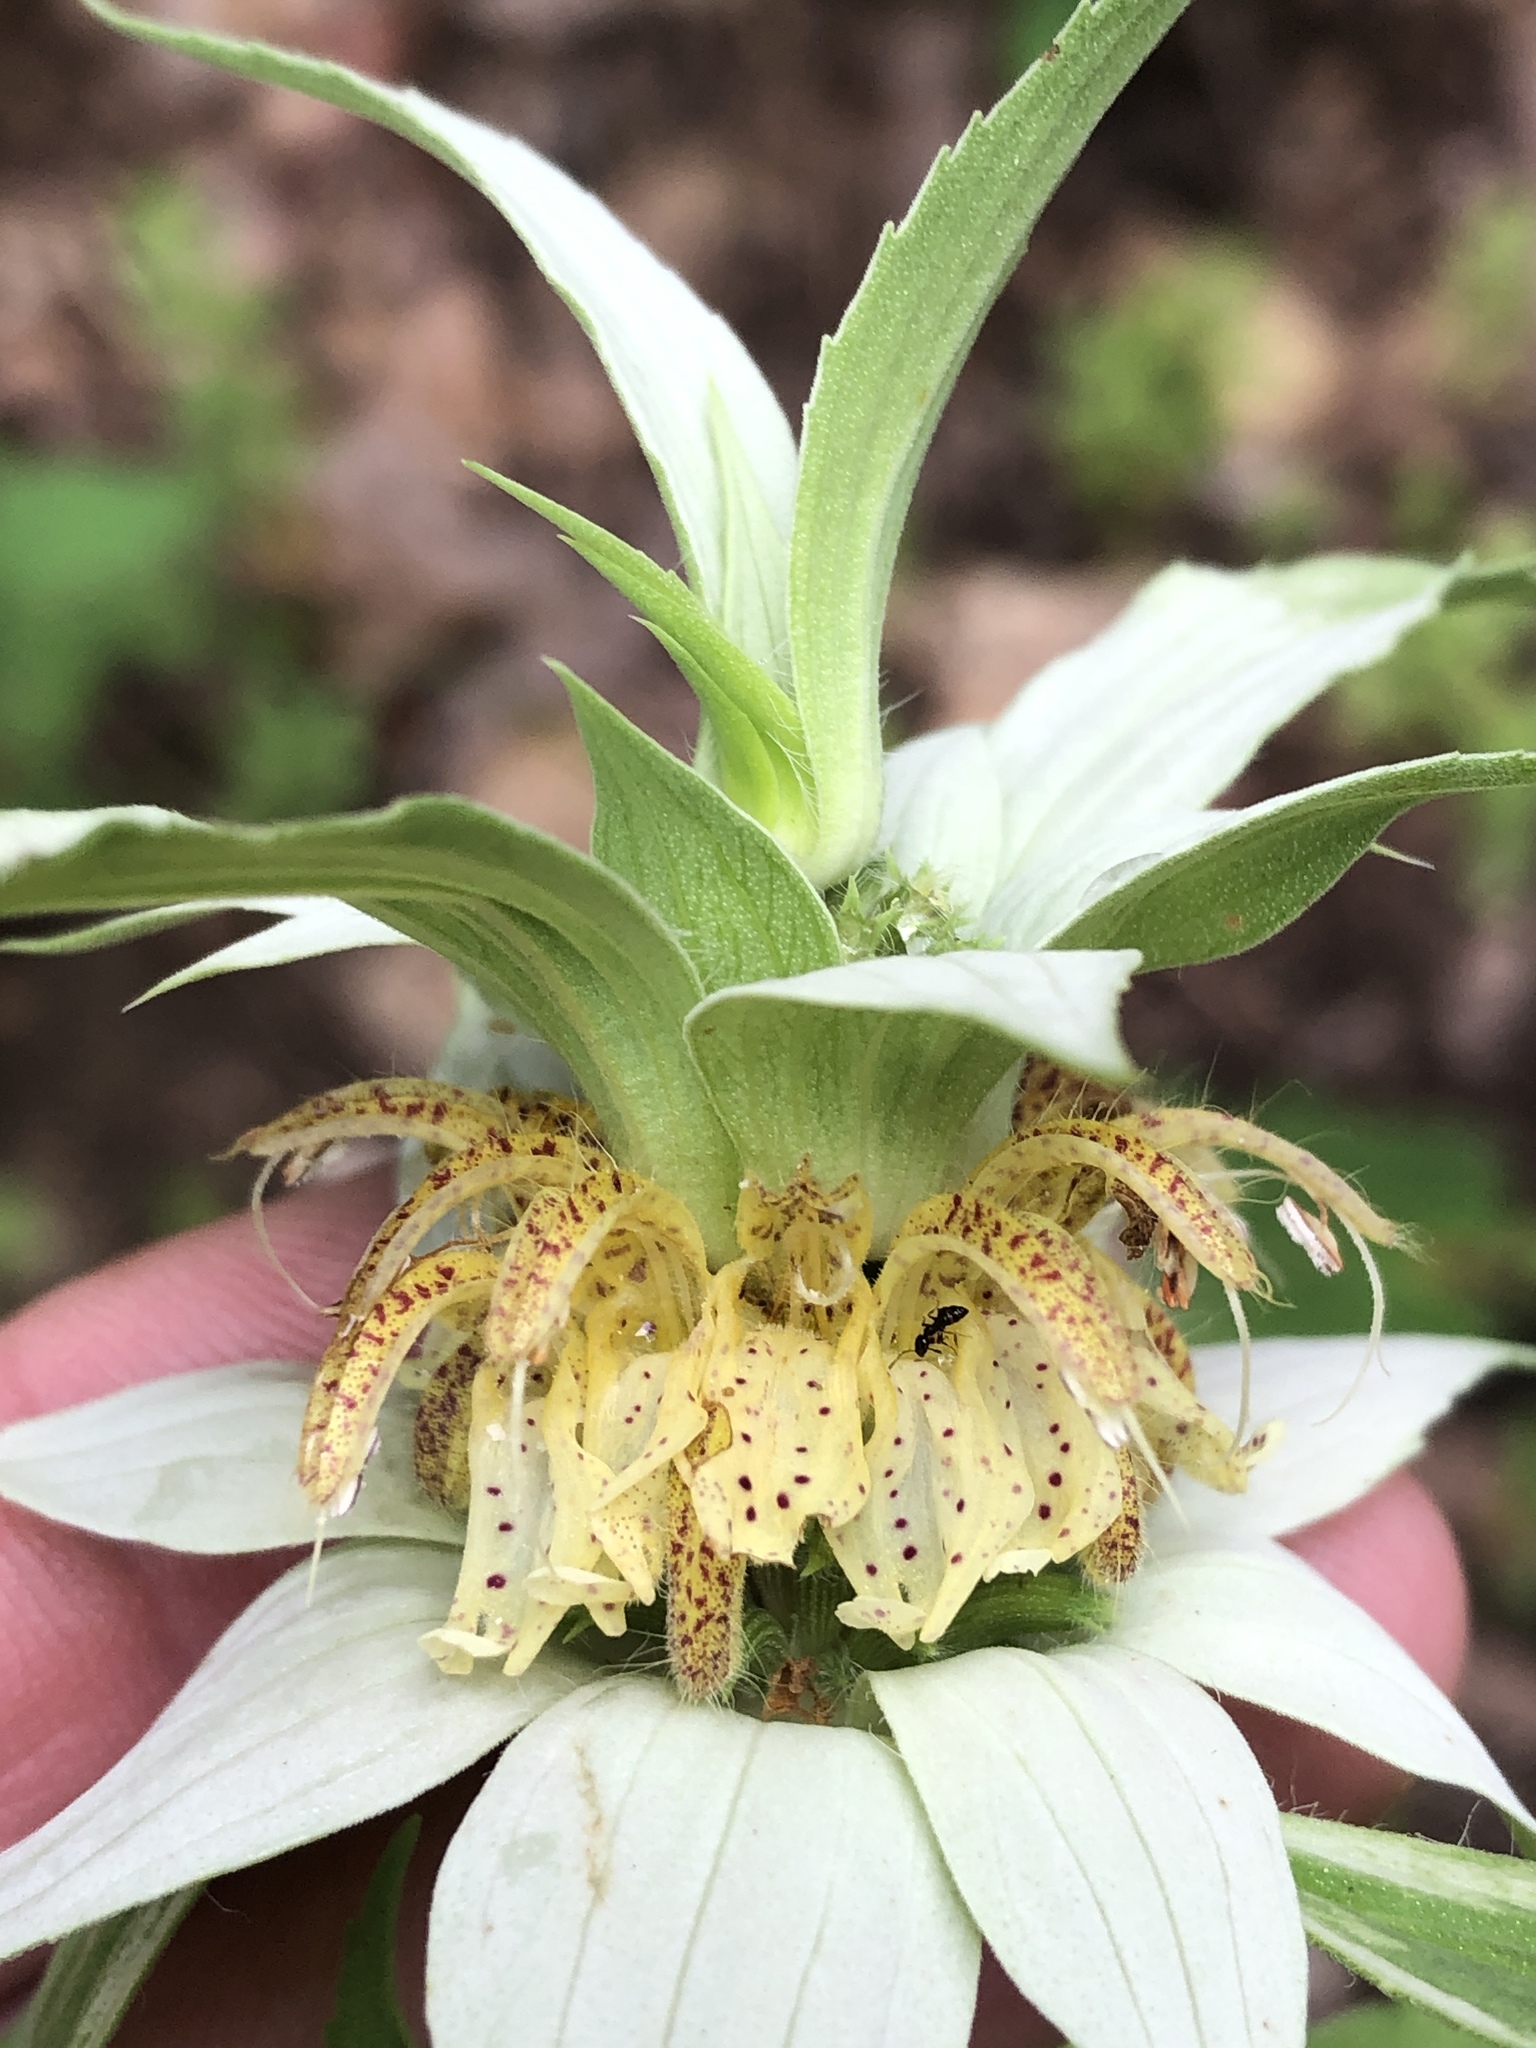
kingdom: Plantae
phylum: Tracheophyta
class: Magnoliopsida
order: Lamiales
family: Lamiaceae
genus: Monarda
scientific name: Monarda punctata
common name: Dotted monarda
